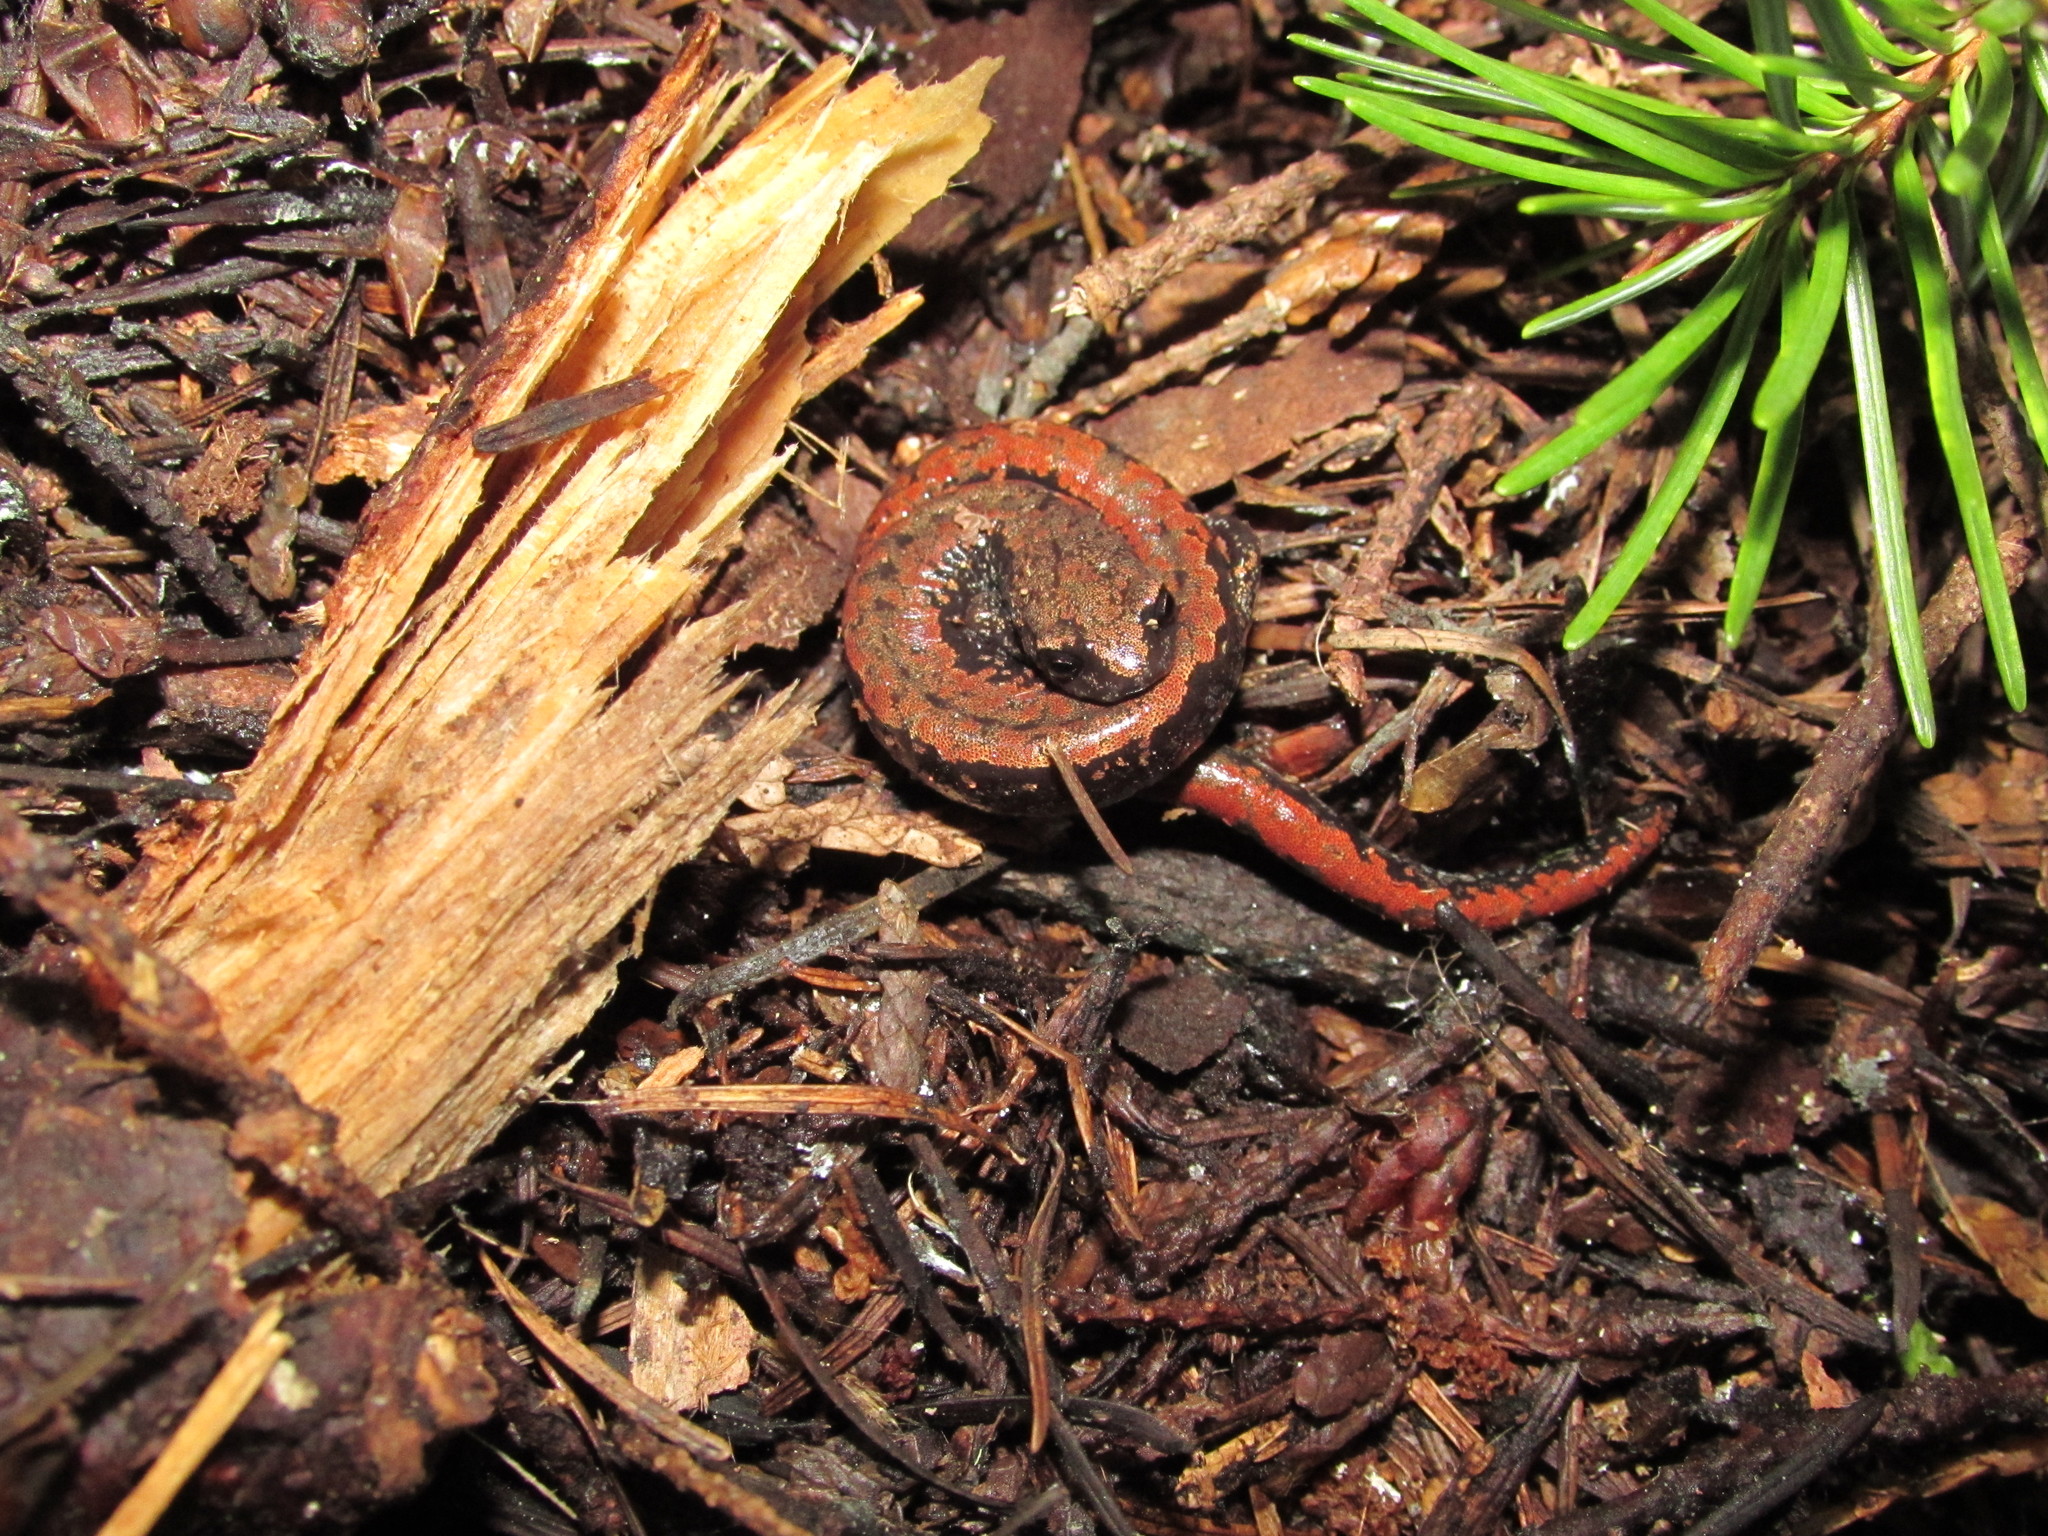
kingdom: Animalia
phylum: Chordata
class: Amphibia
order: Caudata
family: Plethodontidae
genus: Batrachoseps
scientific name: Batrachoseps wrighti
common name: Oregon slender salamander
